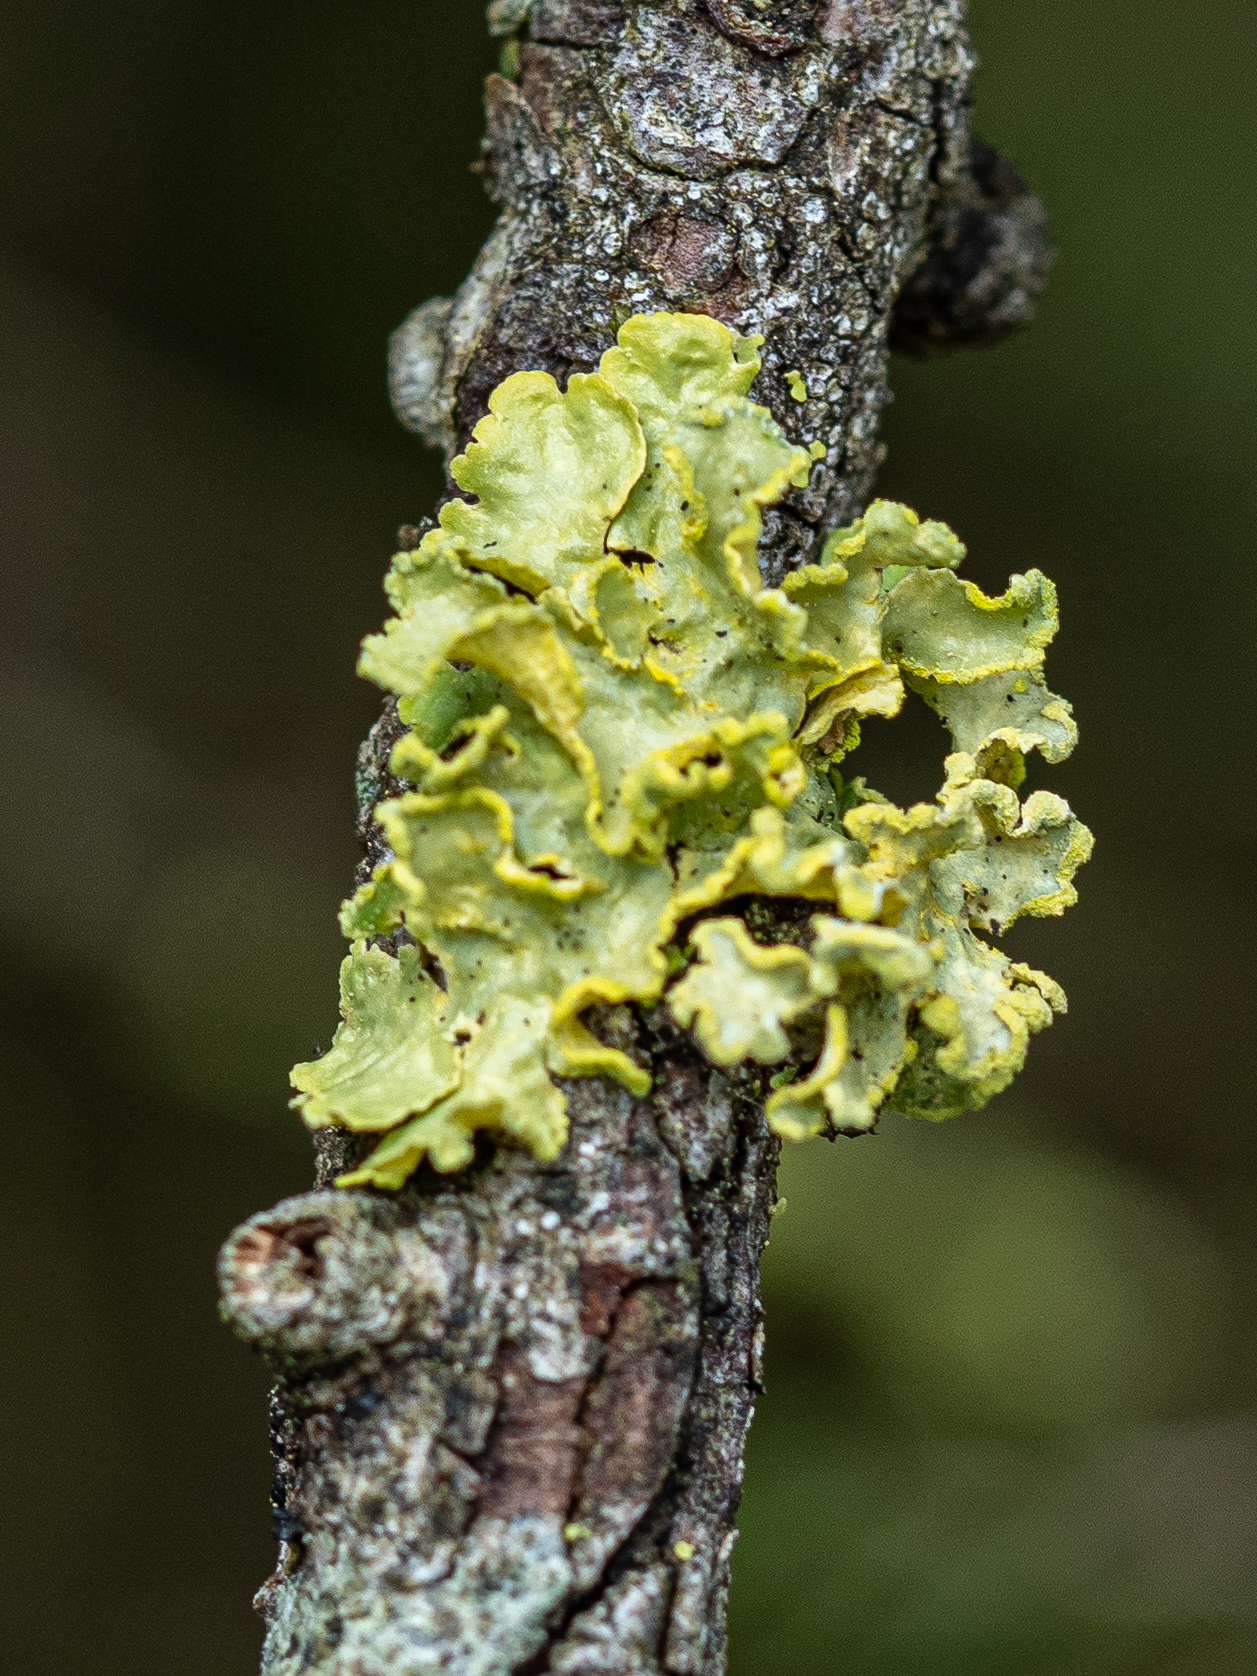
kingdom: Fungi
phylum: Ascomycota
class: Lecanoromycetes
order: Lecanorales
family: Parmeliaceae
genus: Vulpicida
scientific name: Vulpicida pinastri
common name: Powdered sunshine lichen
